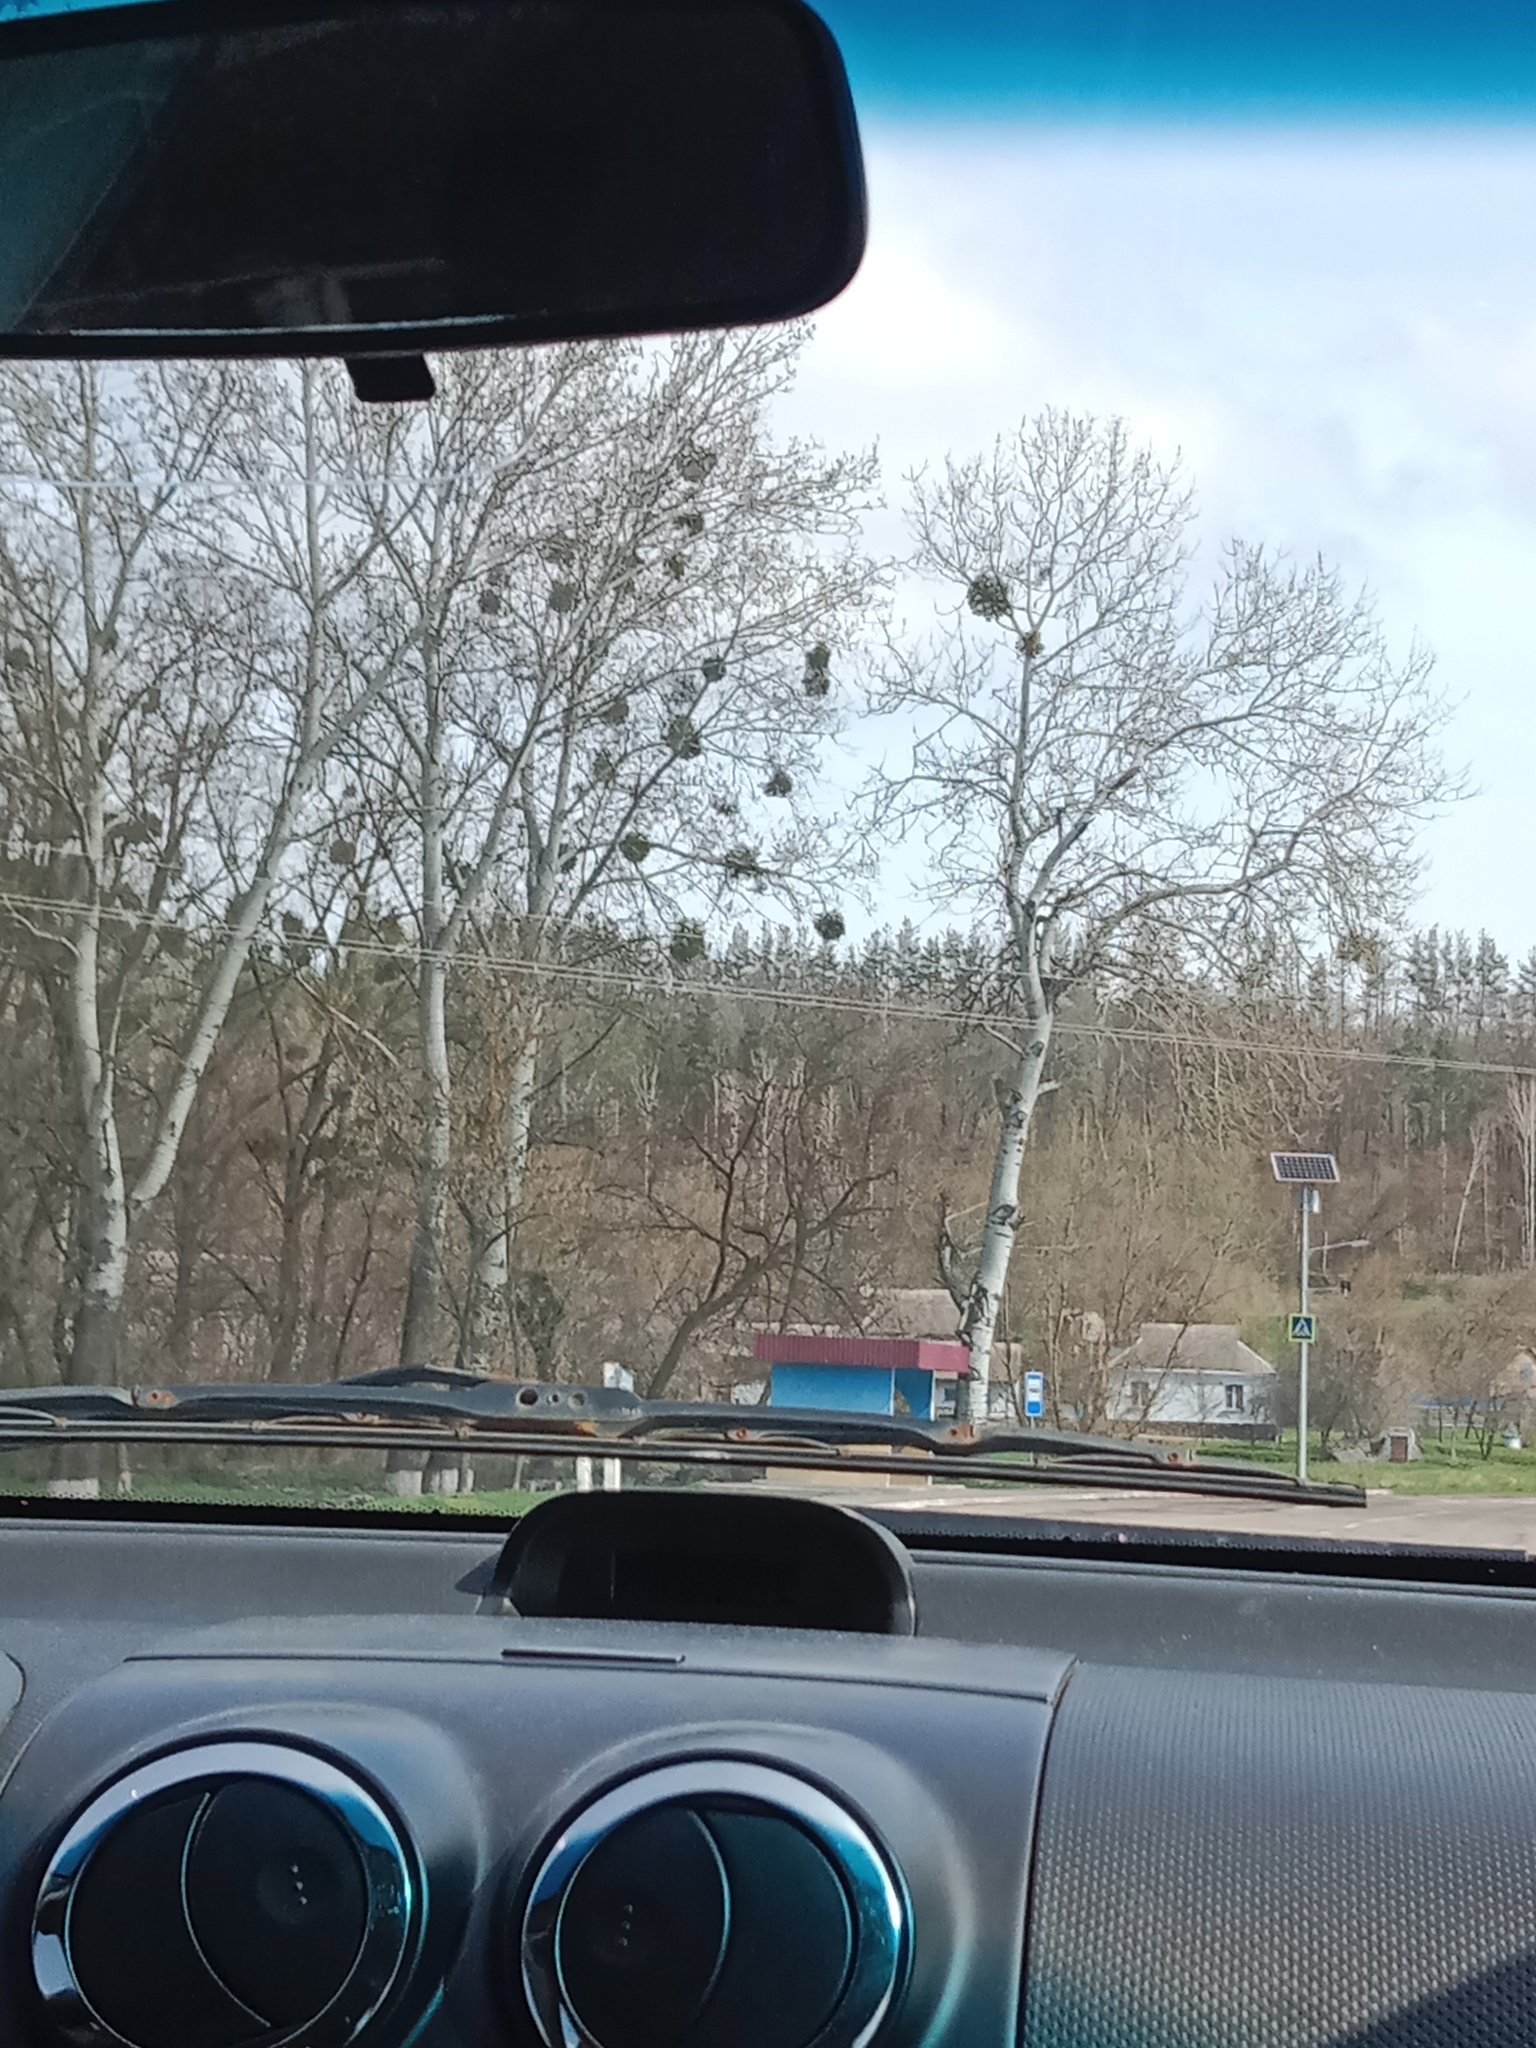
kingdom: Plantae
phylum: Tracheophyta
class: Magnoliopsida
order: Santalales
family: Viscaceae
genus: Viscum
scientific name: Viscum album
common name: Mistletoe
